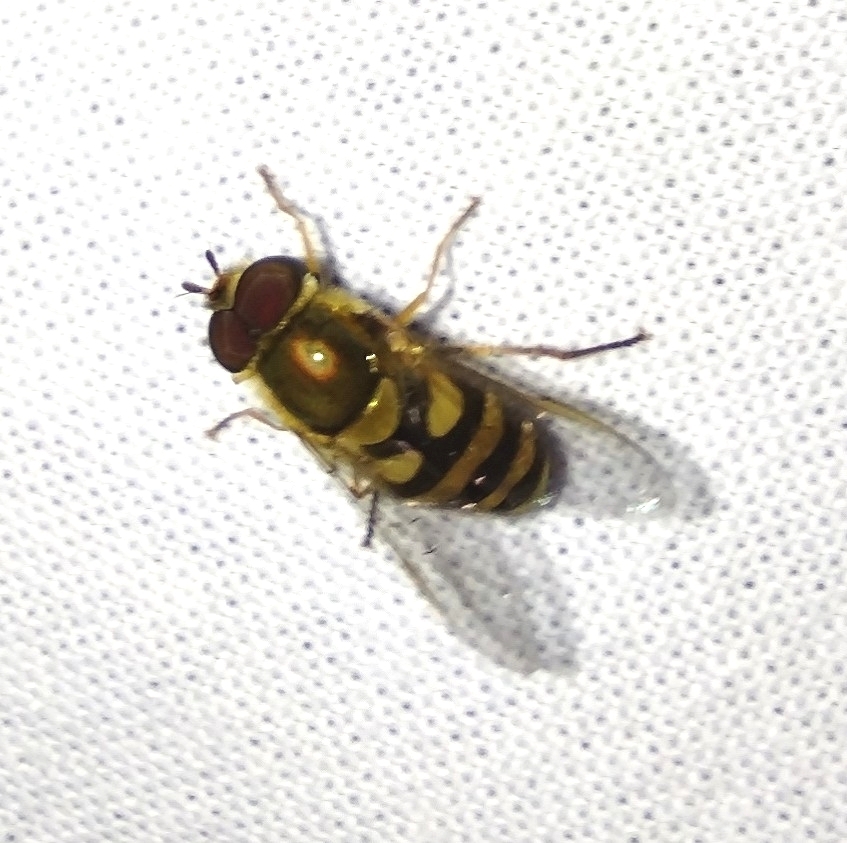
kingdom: Animalia
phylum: Arthropoda
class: Insecta
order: Diptera
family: Syrphidae
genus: Syrphus
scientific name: Syrphus
